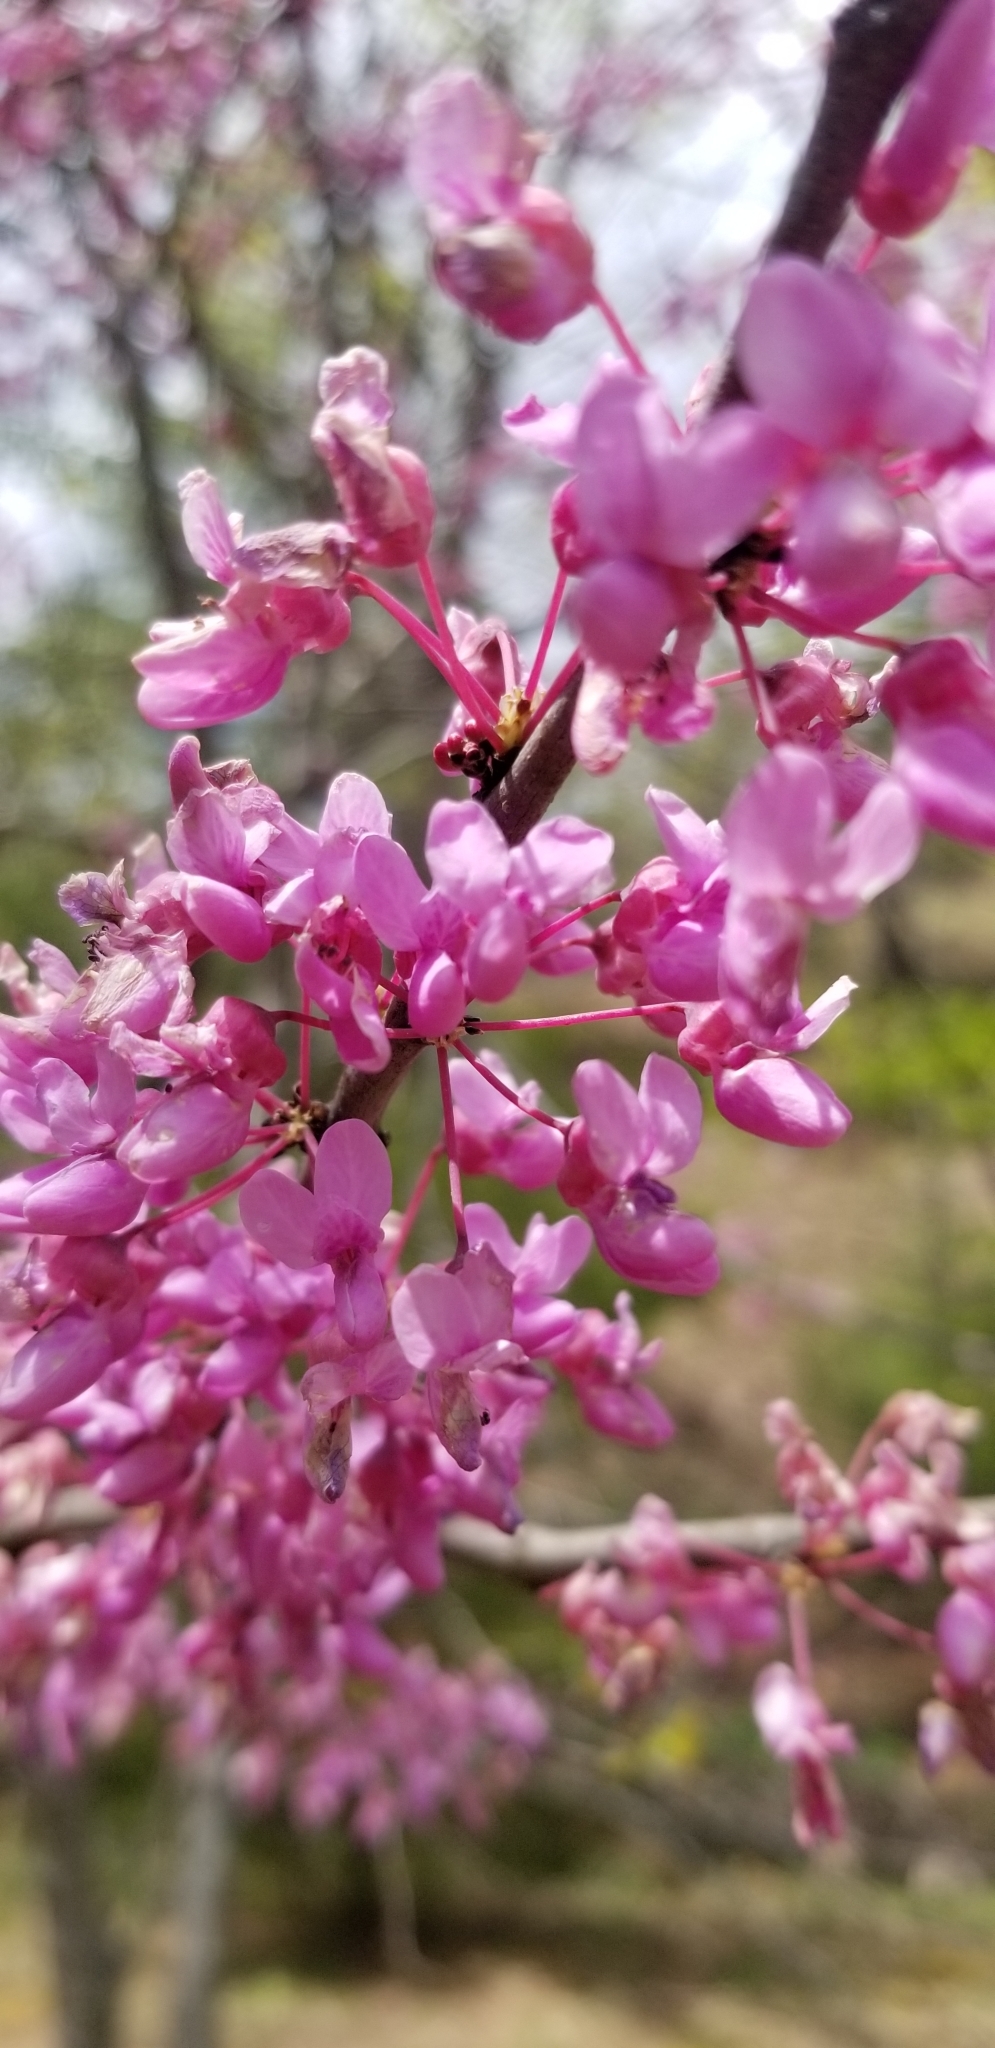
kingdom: Plantae
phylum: Tracheophyta
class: Magnoliopsida
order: Fabales
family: Fabaceae
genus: Cercis
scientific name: Cercis canadensis
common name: Eastern redbud
